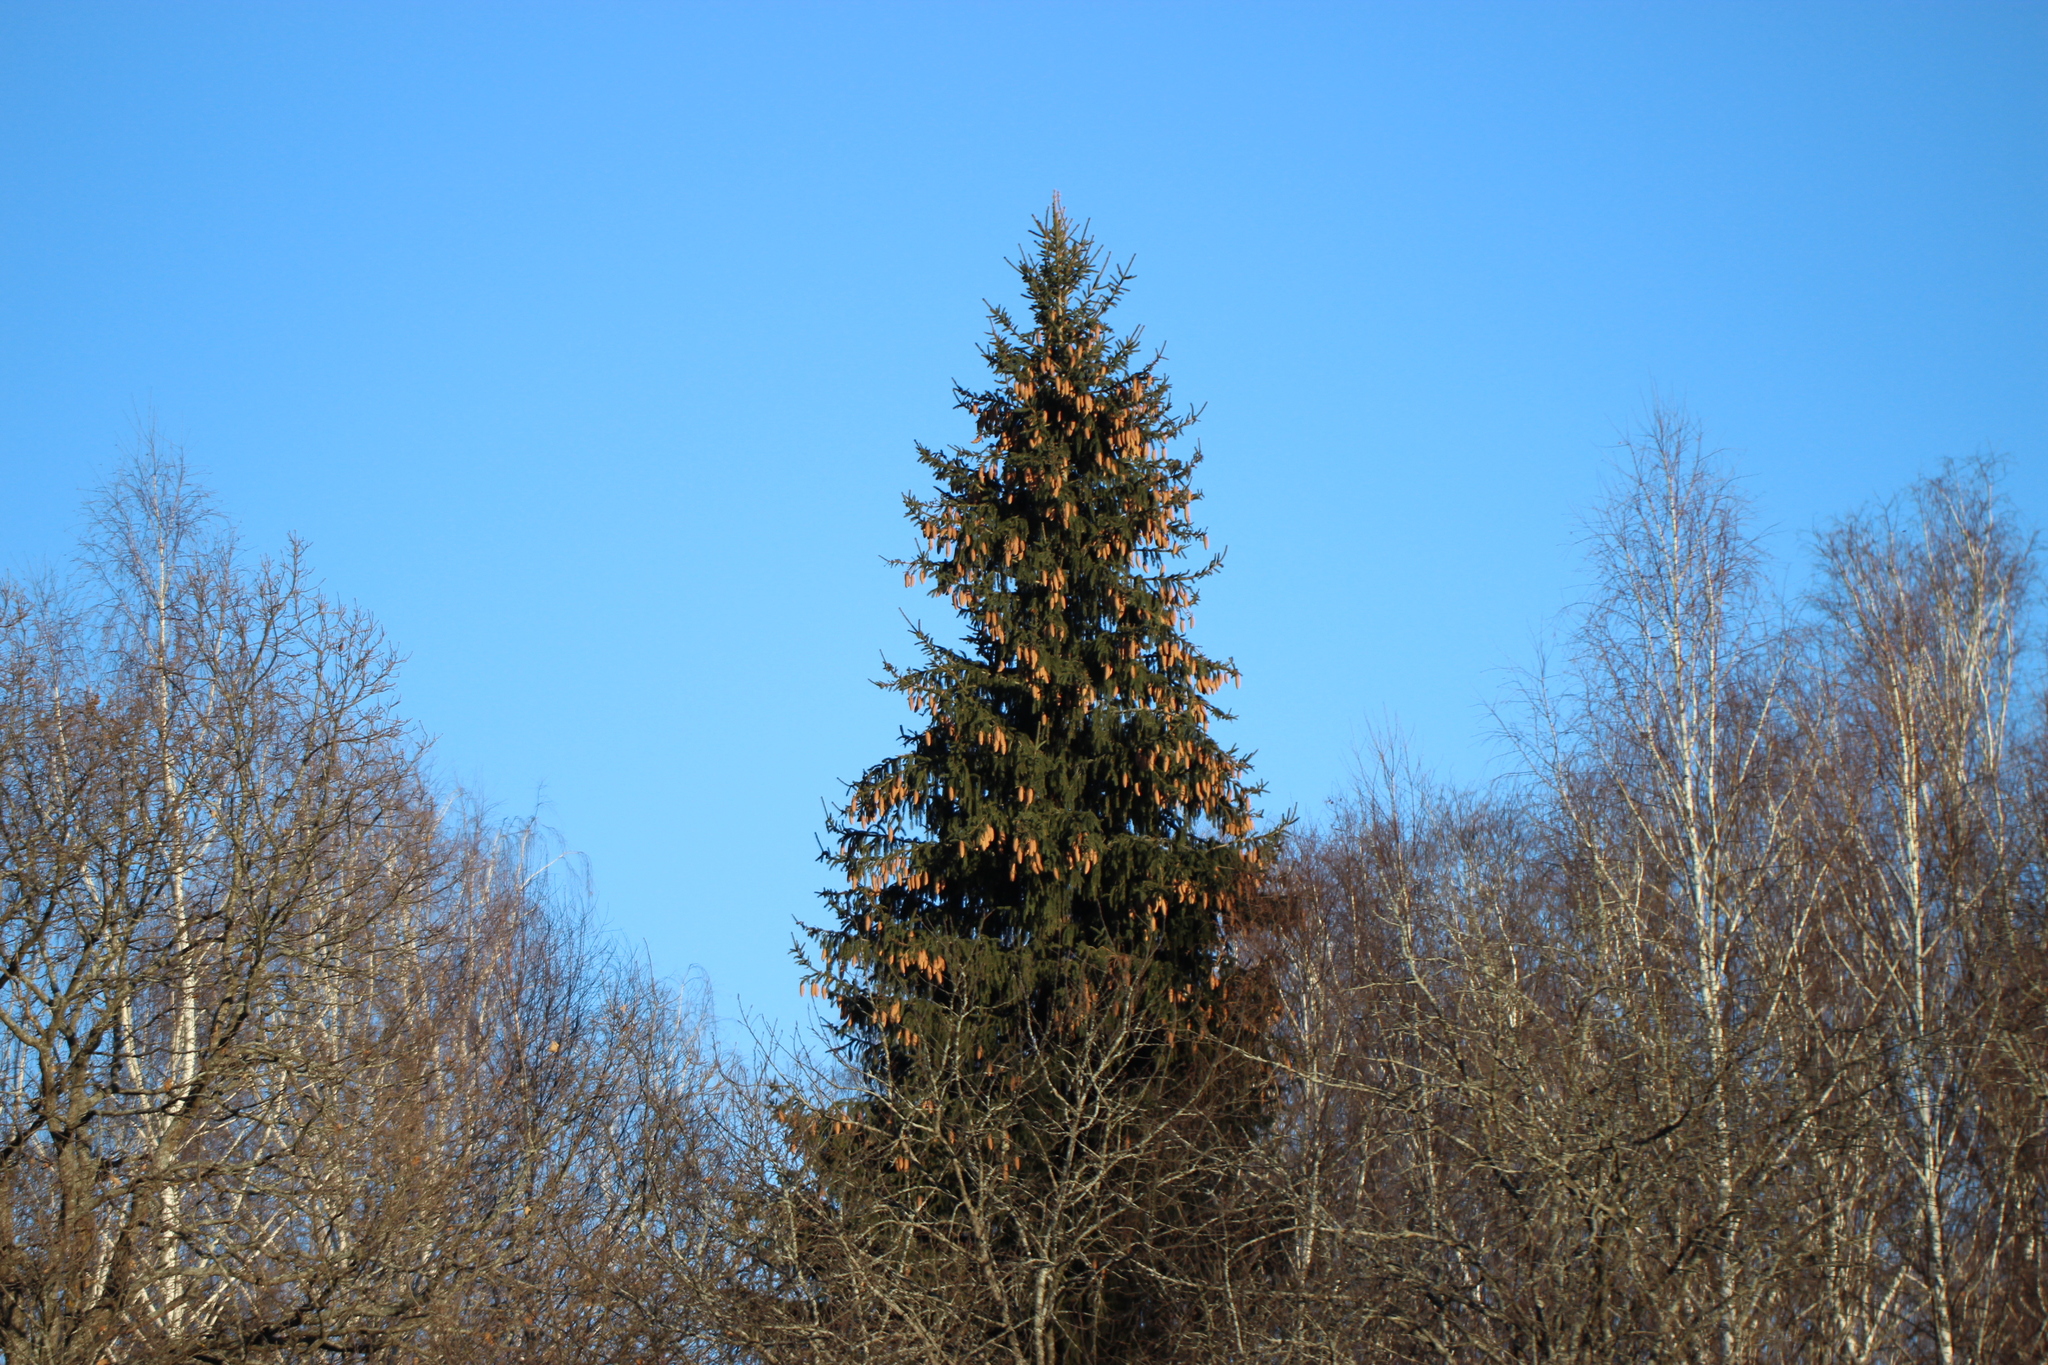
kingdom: Plantae
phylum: Tracheophyta
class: Pinopsida
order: Pinales
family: Pinaceae
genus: Picea
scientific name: Picea abies
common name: Norway spruce
